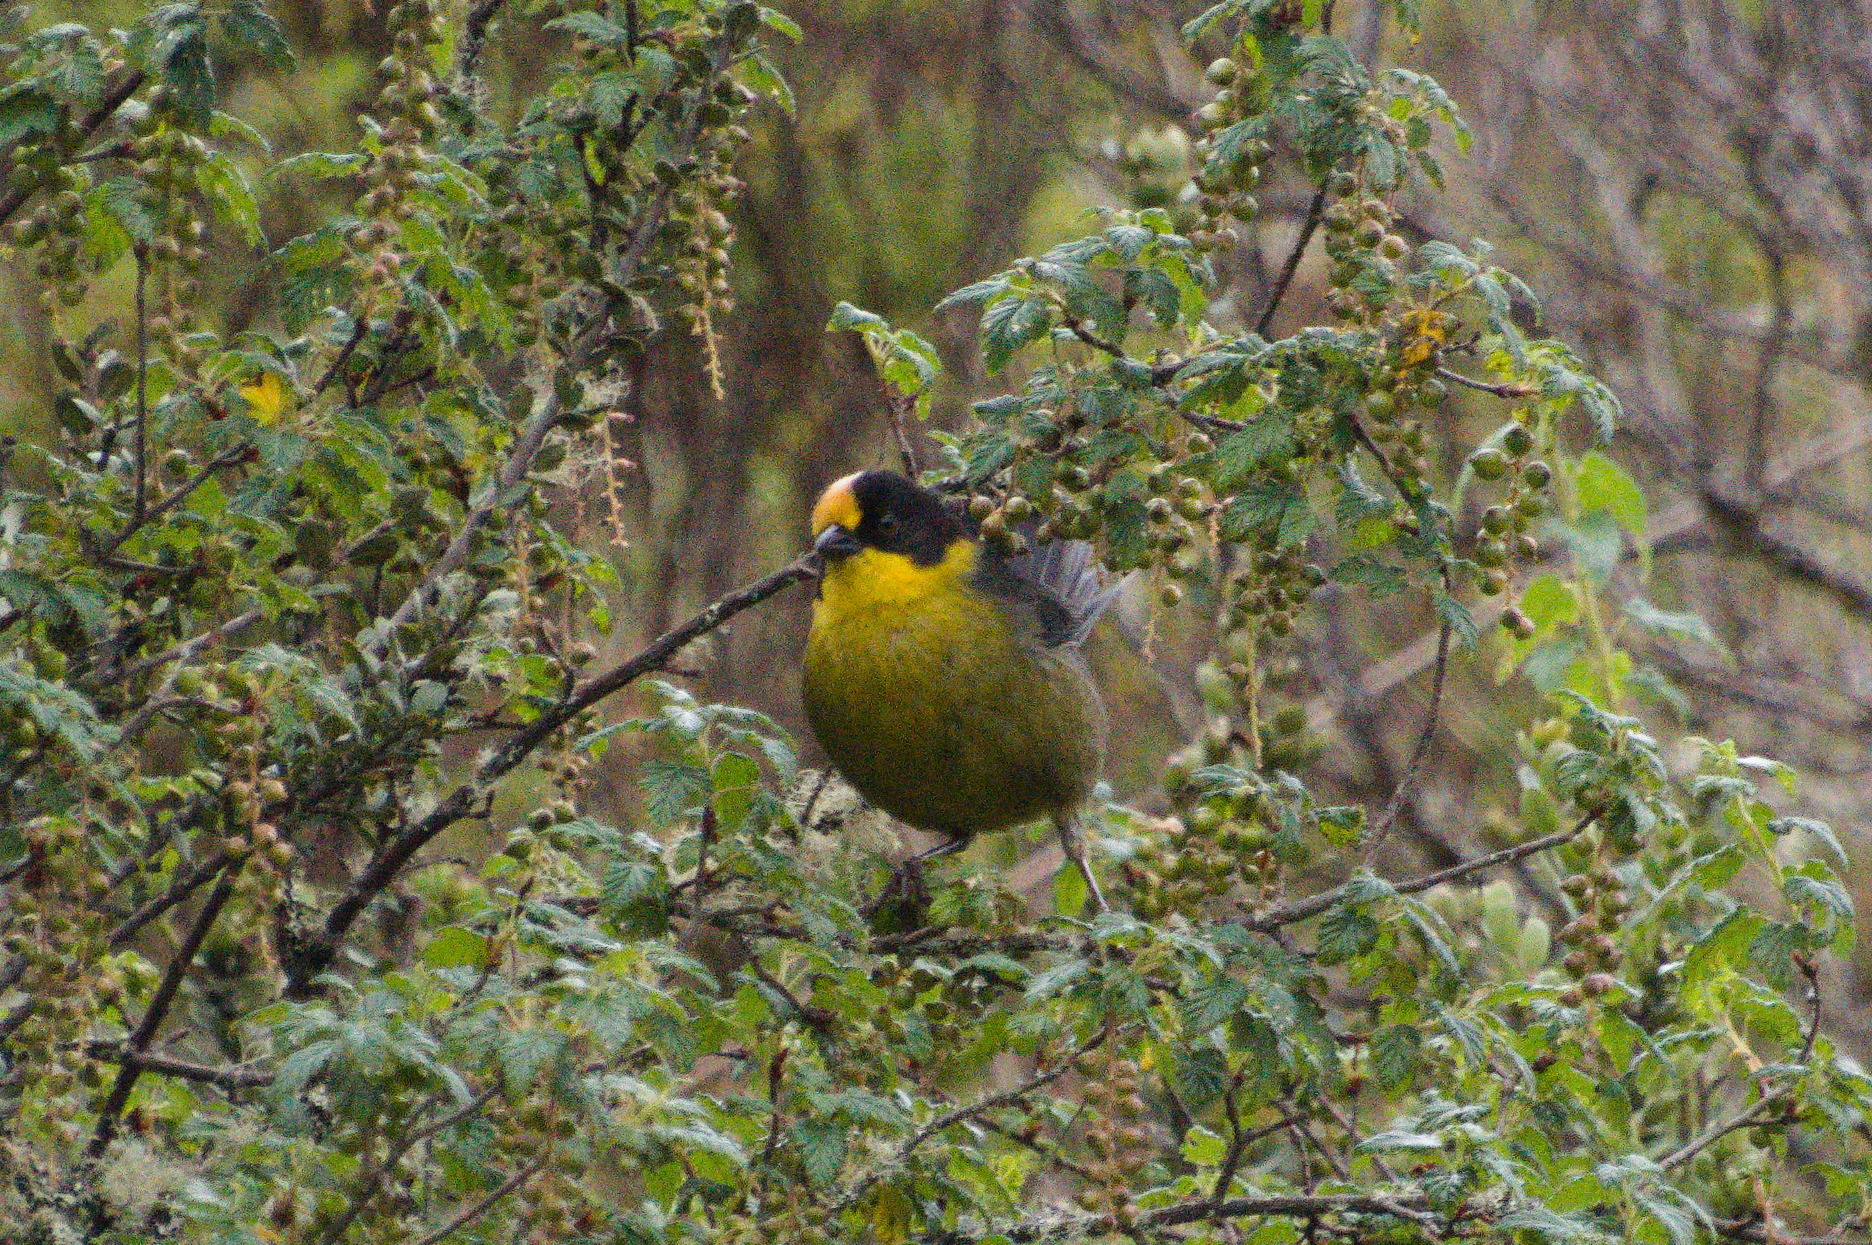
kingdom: Animalia
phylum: Chordata
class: Aves
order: Passeriformes
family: Passerellidae
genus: Atlapetes
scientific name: Atlapetes pallidinucha
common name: Pale-naped brushfinch
